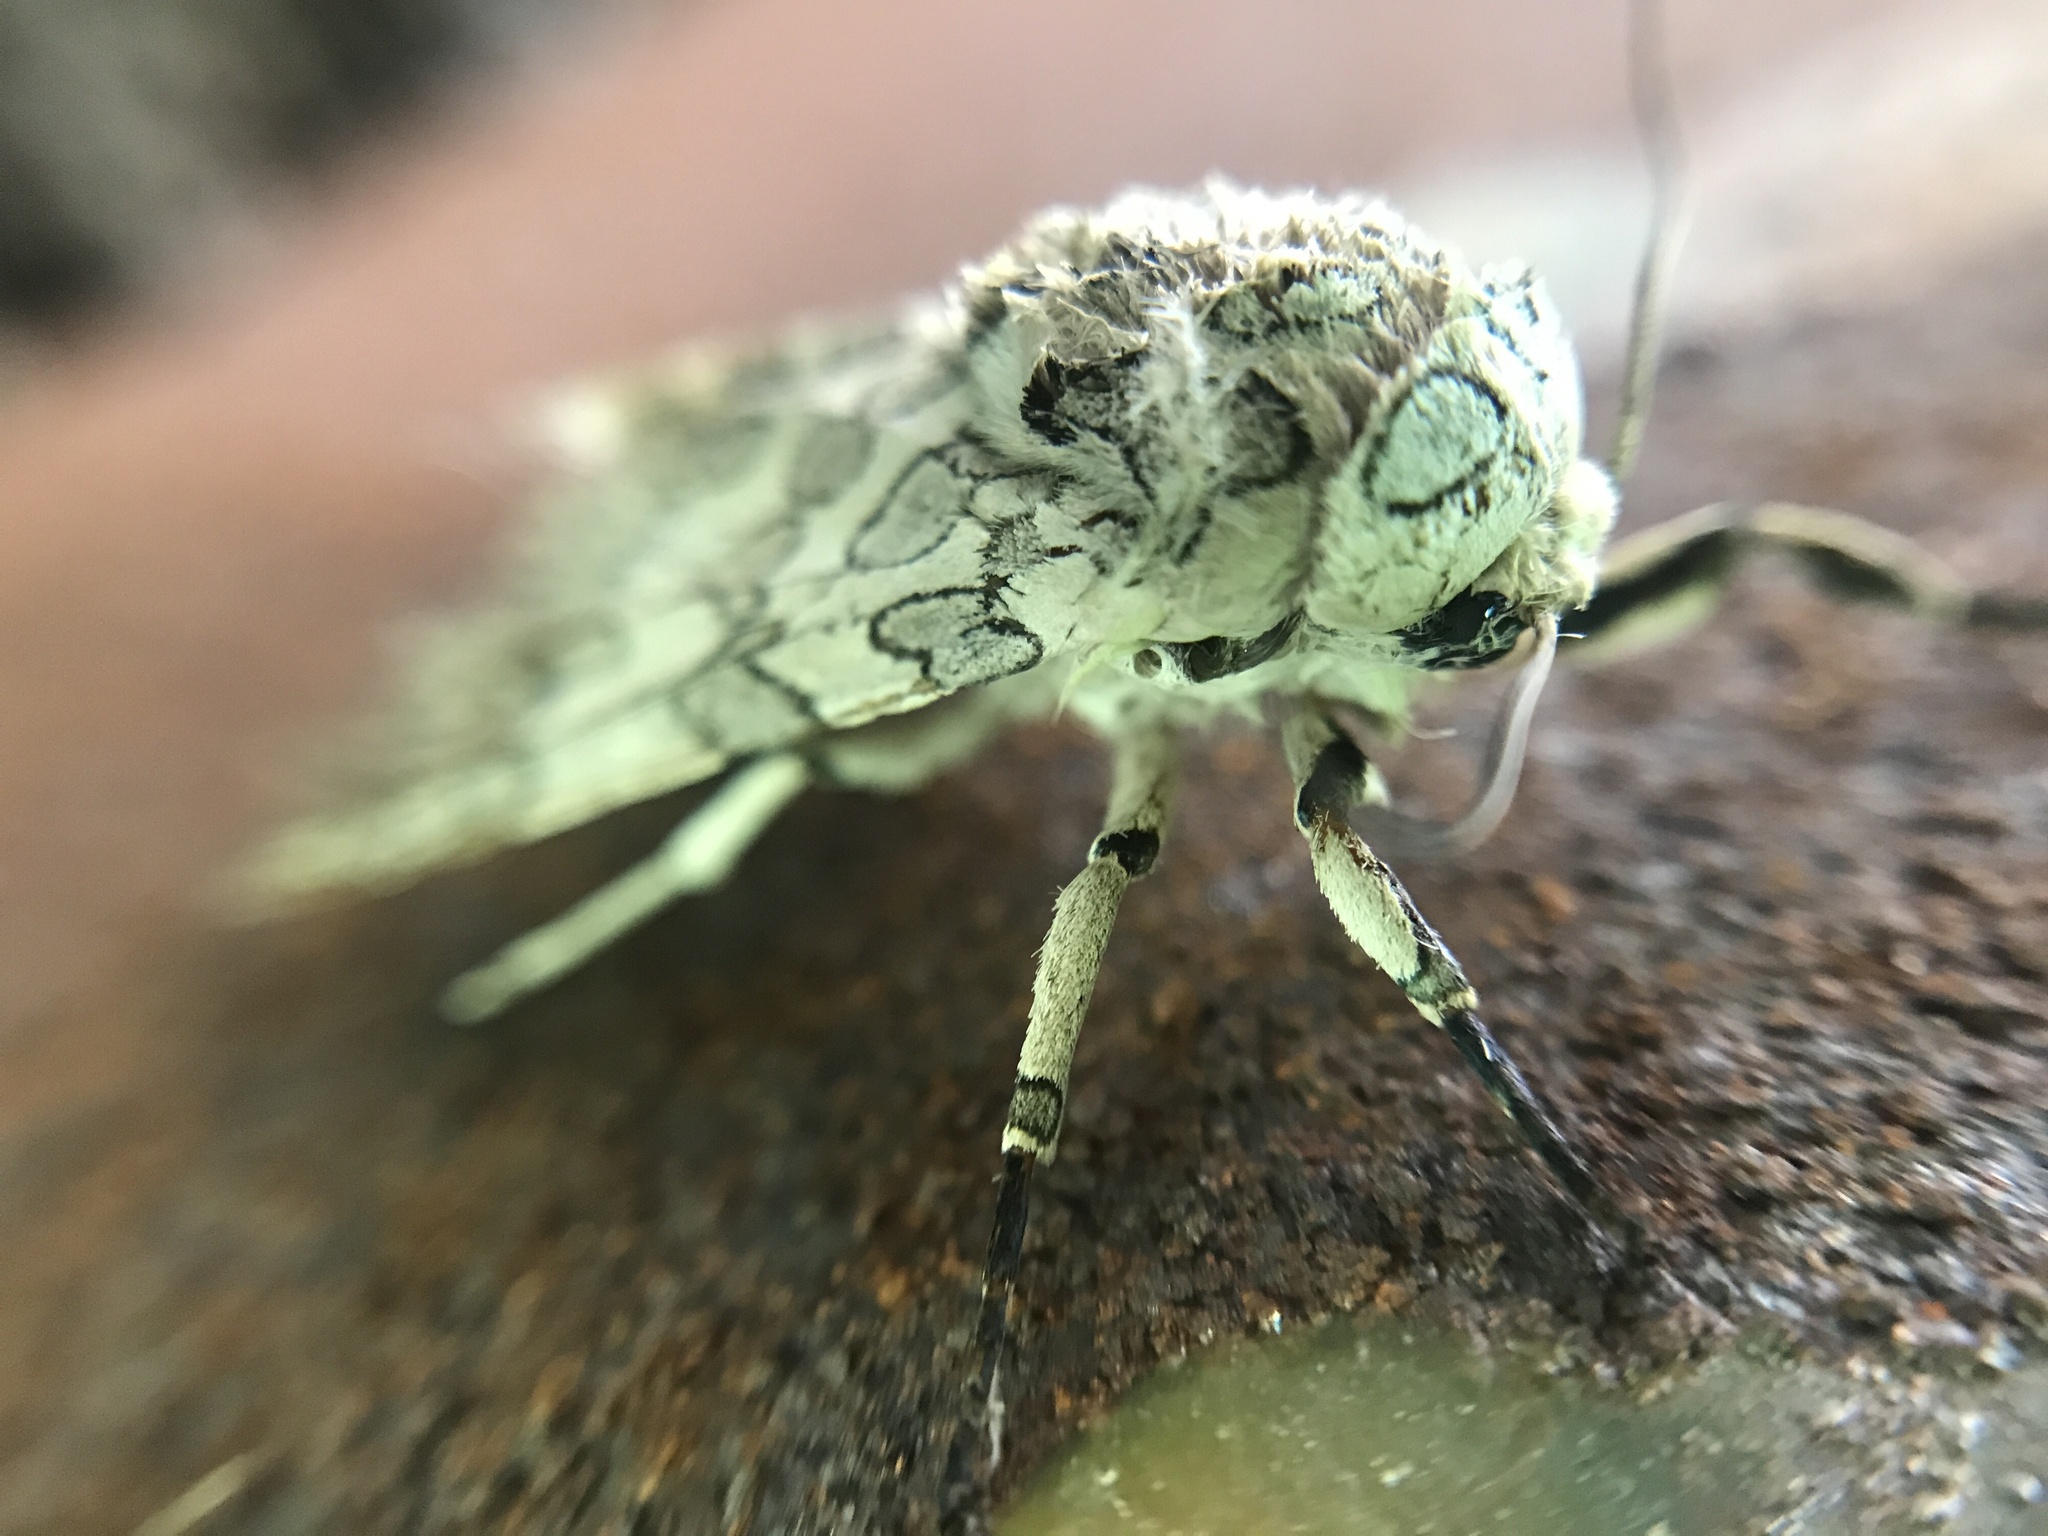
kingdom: Animalia
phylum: Arthropoda
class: Insecta
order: Lepidoptera
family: Erebidae
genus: Hypercompe
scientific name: Hypercompe abdominalis
